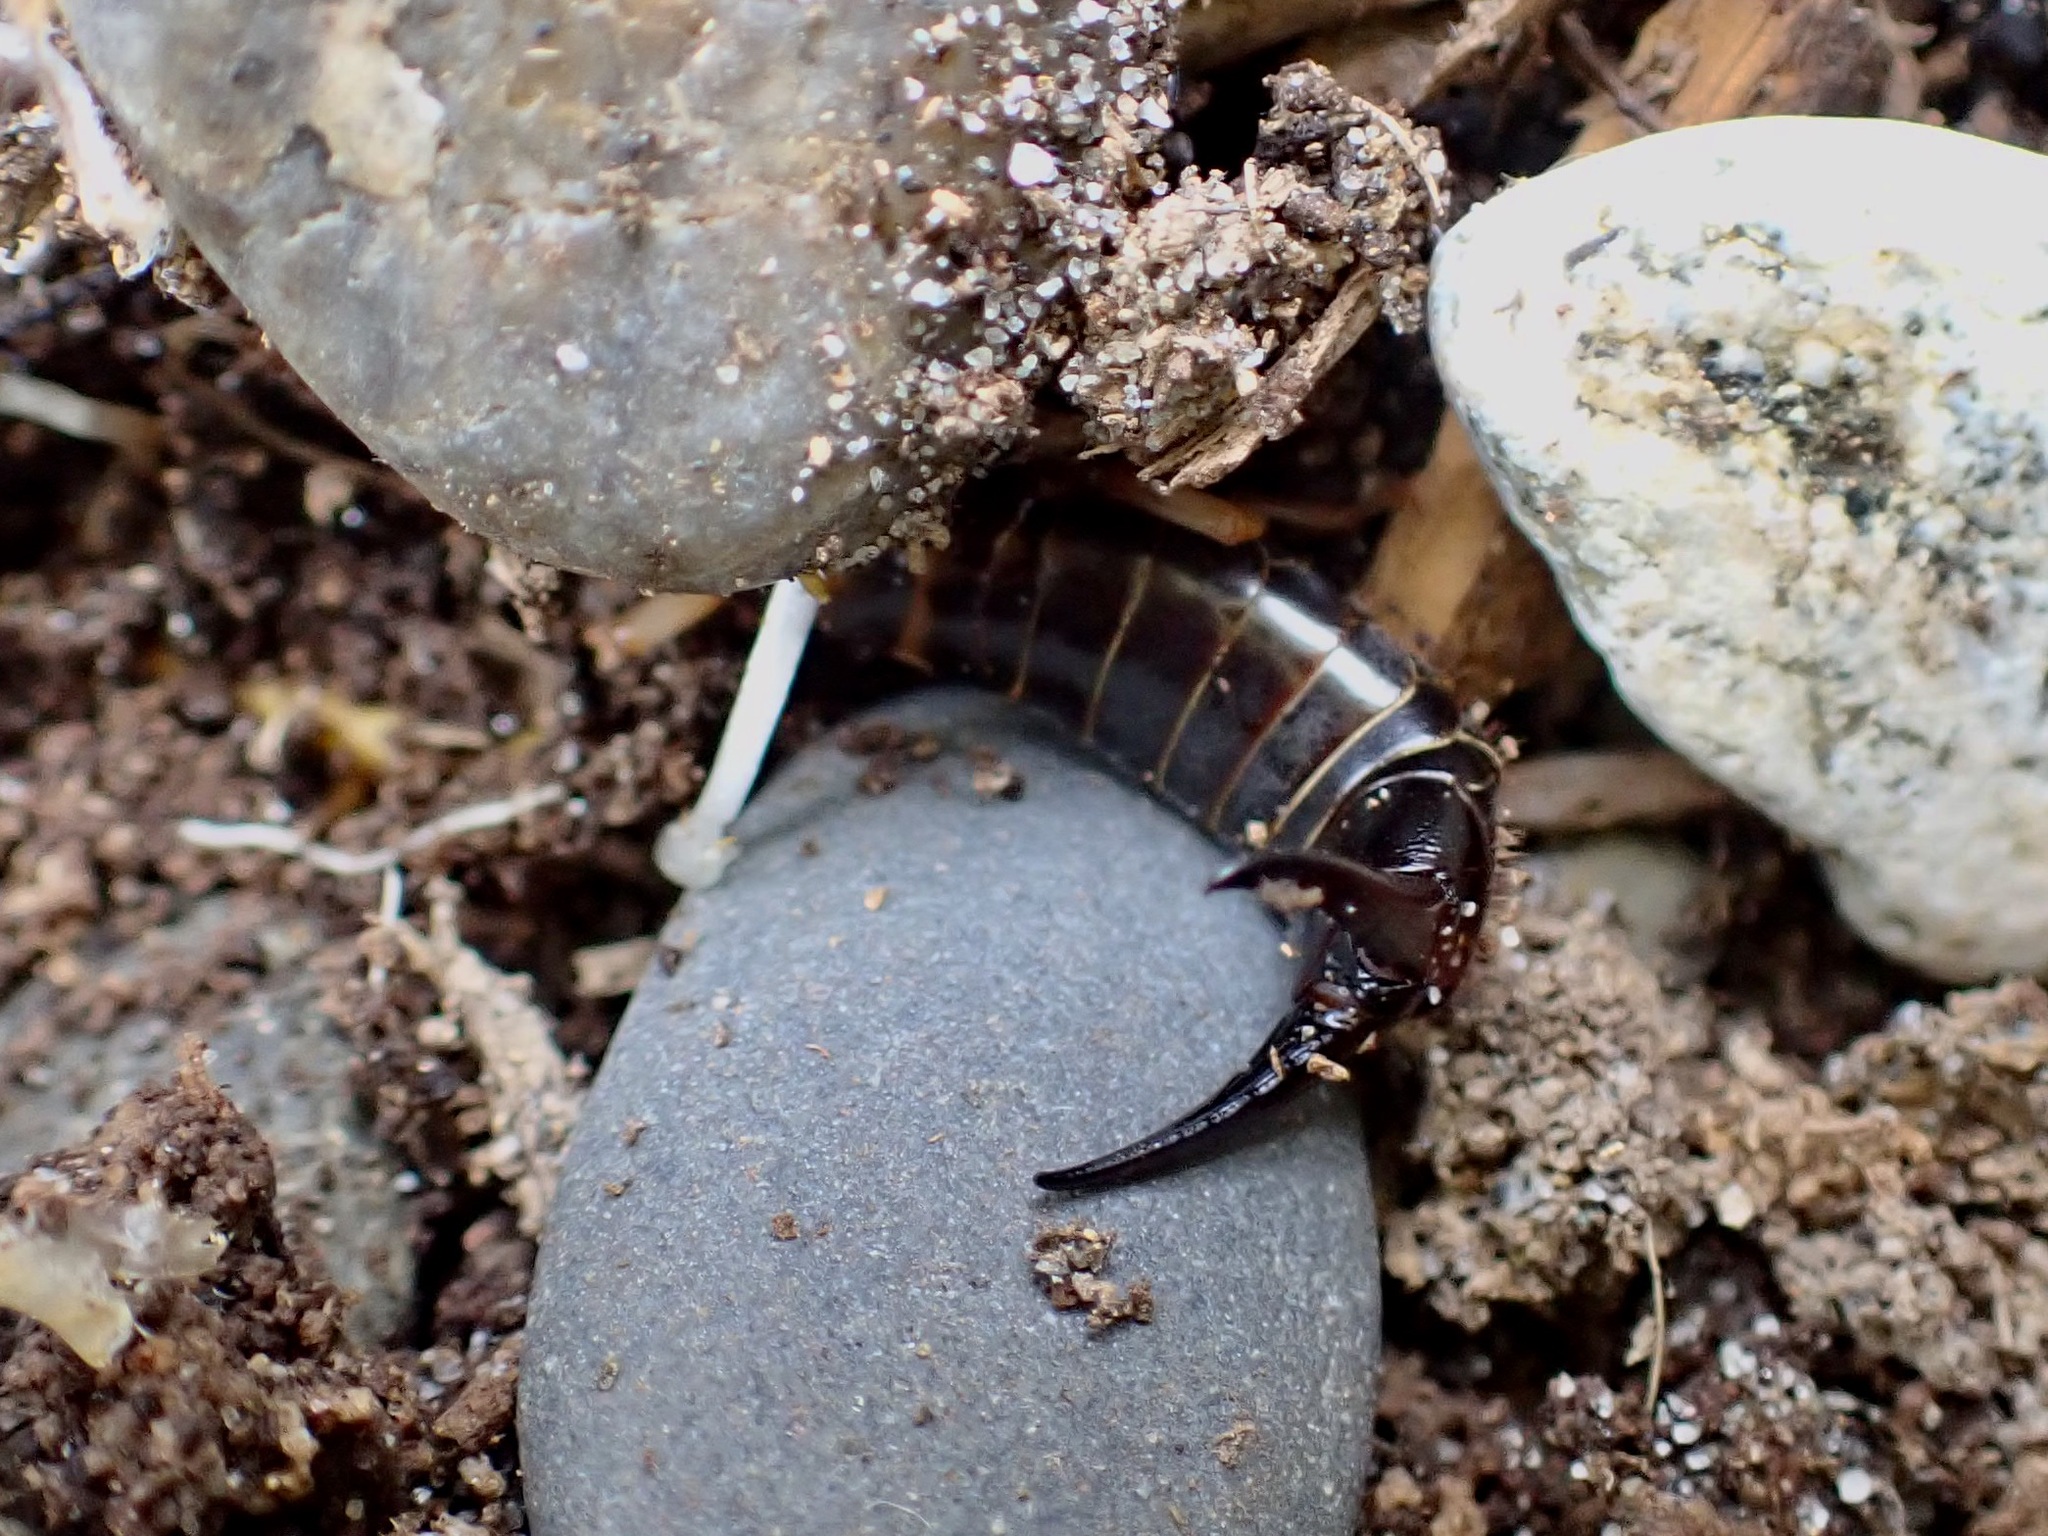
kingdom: Animalia
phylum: Arthropoda
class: Insecta
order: Dermaptera
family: Anisolabididae
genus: Anisolabis
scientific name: Anisolabis littorea
